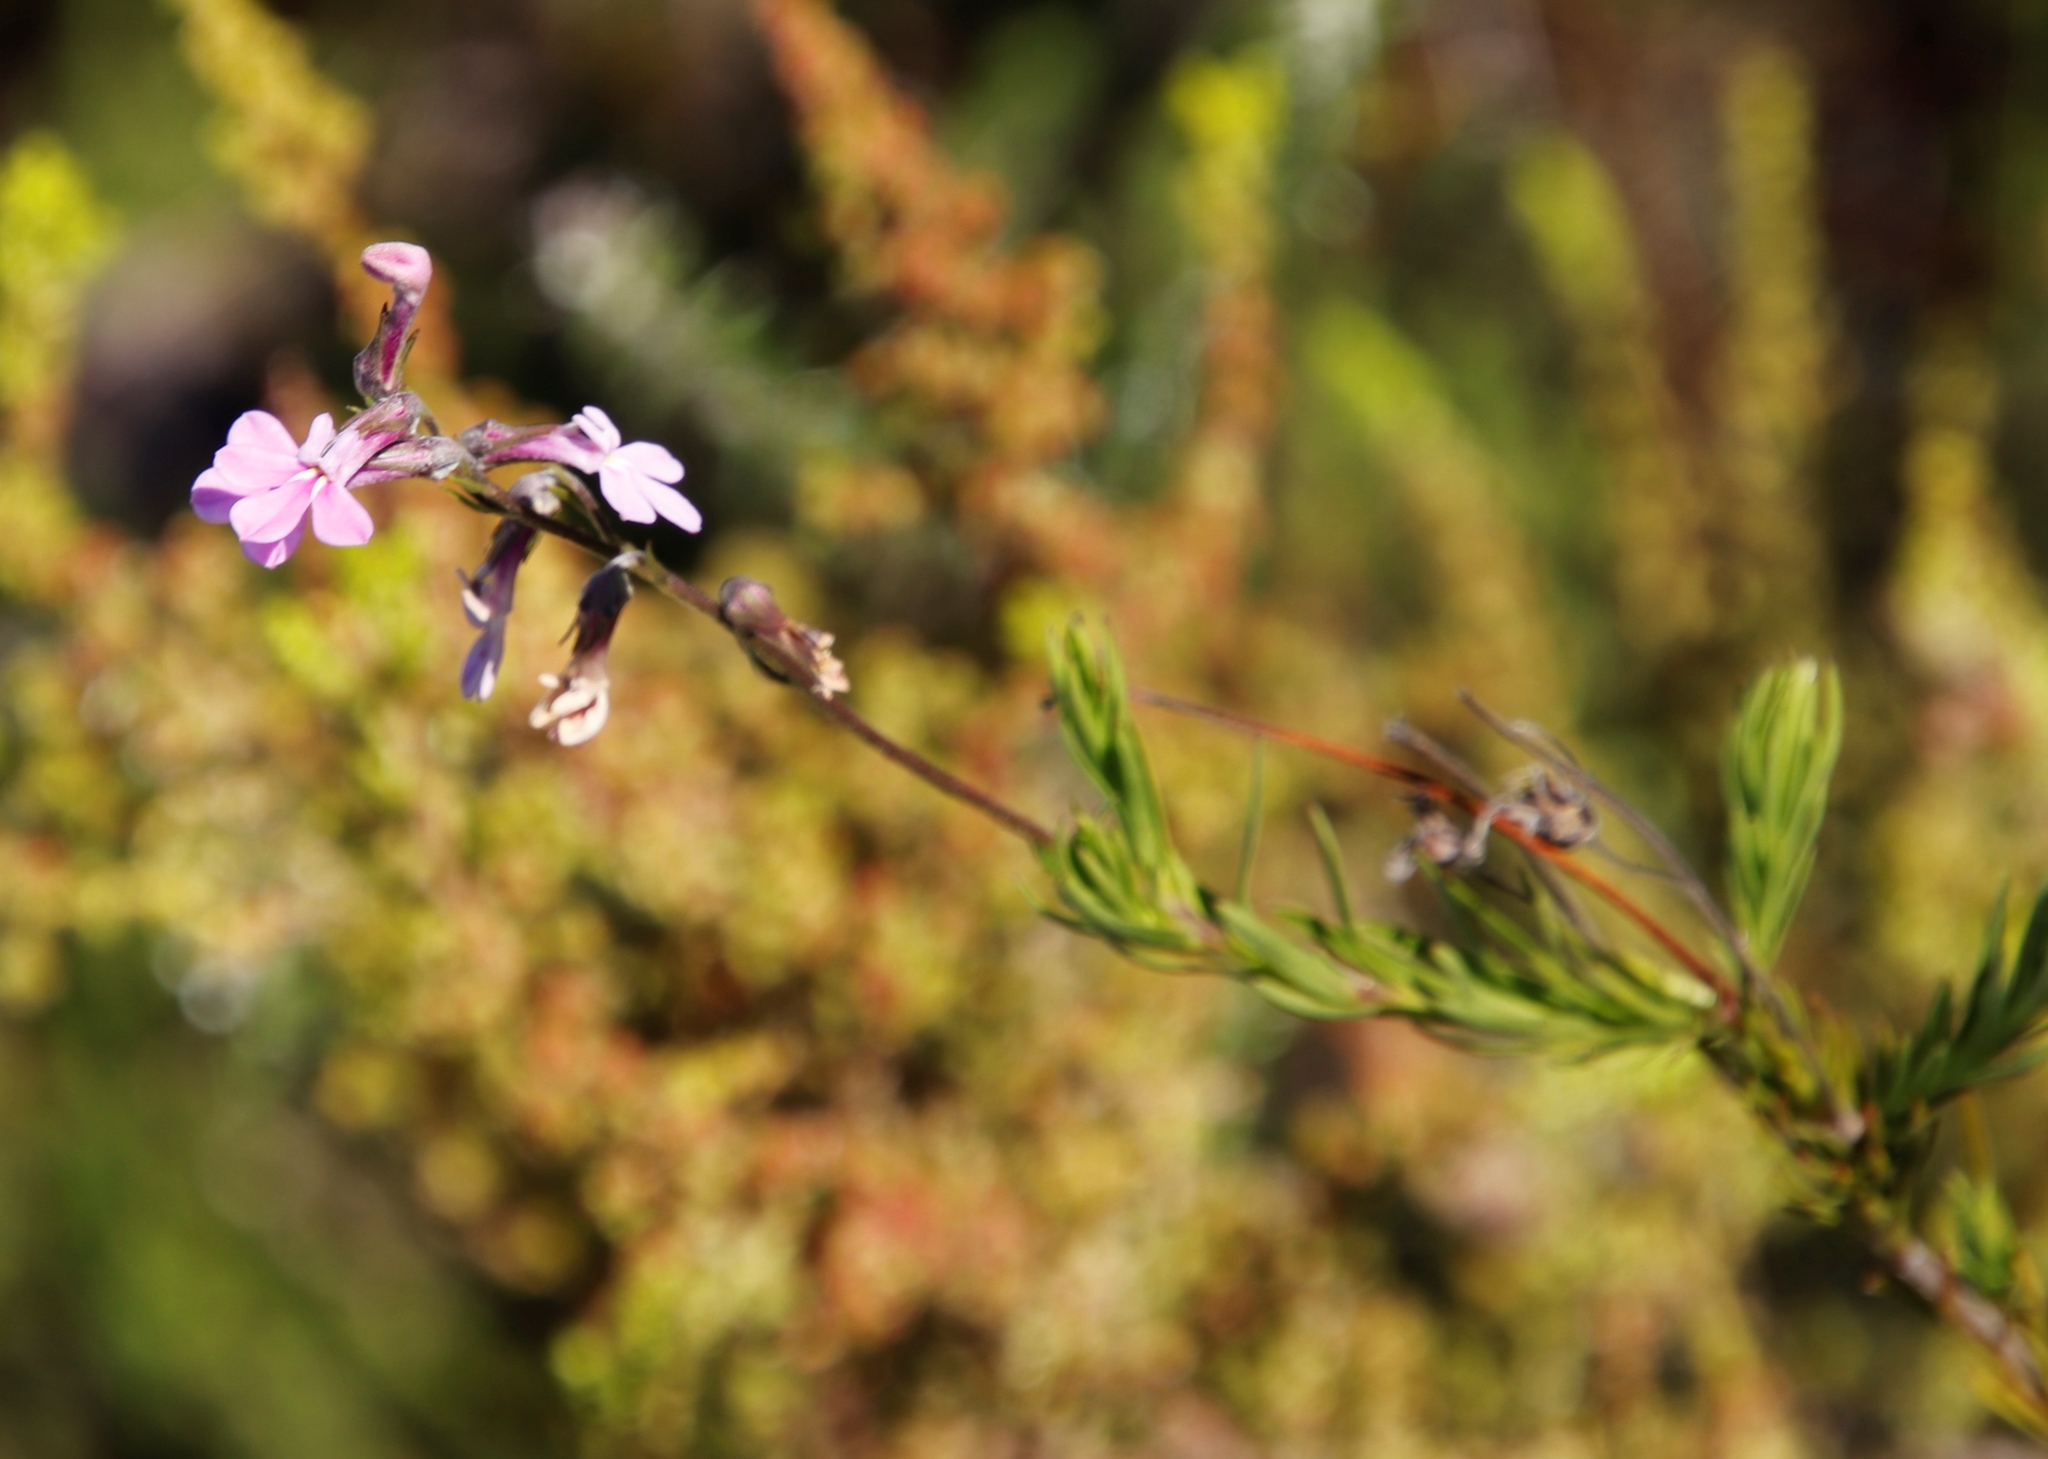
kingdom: Plantae
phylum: Tracheophyta
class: Magnoliopsida
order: Asterales
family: Campanulaceae
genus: Lobelia
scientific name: Lobelia pinifolia
